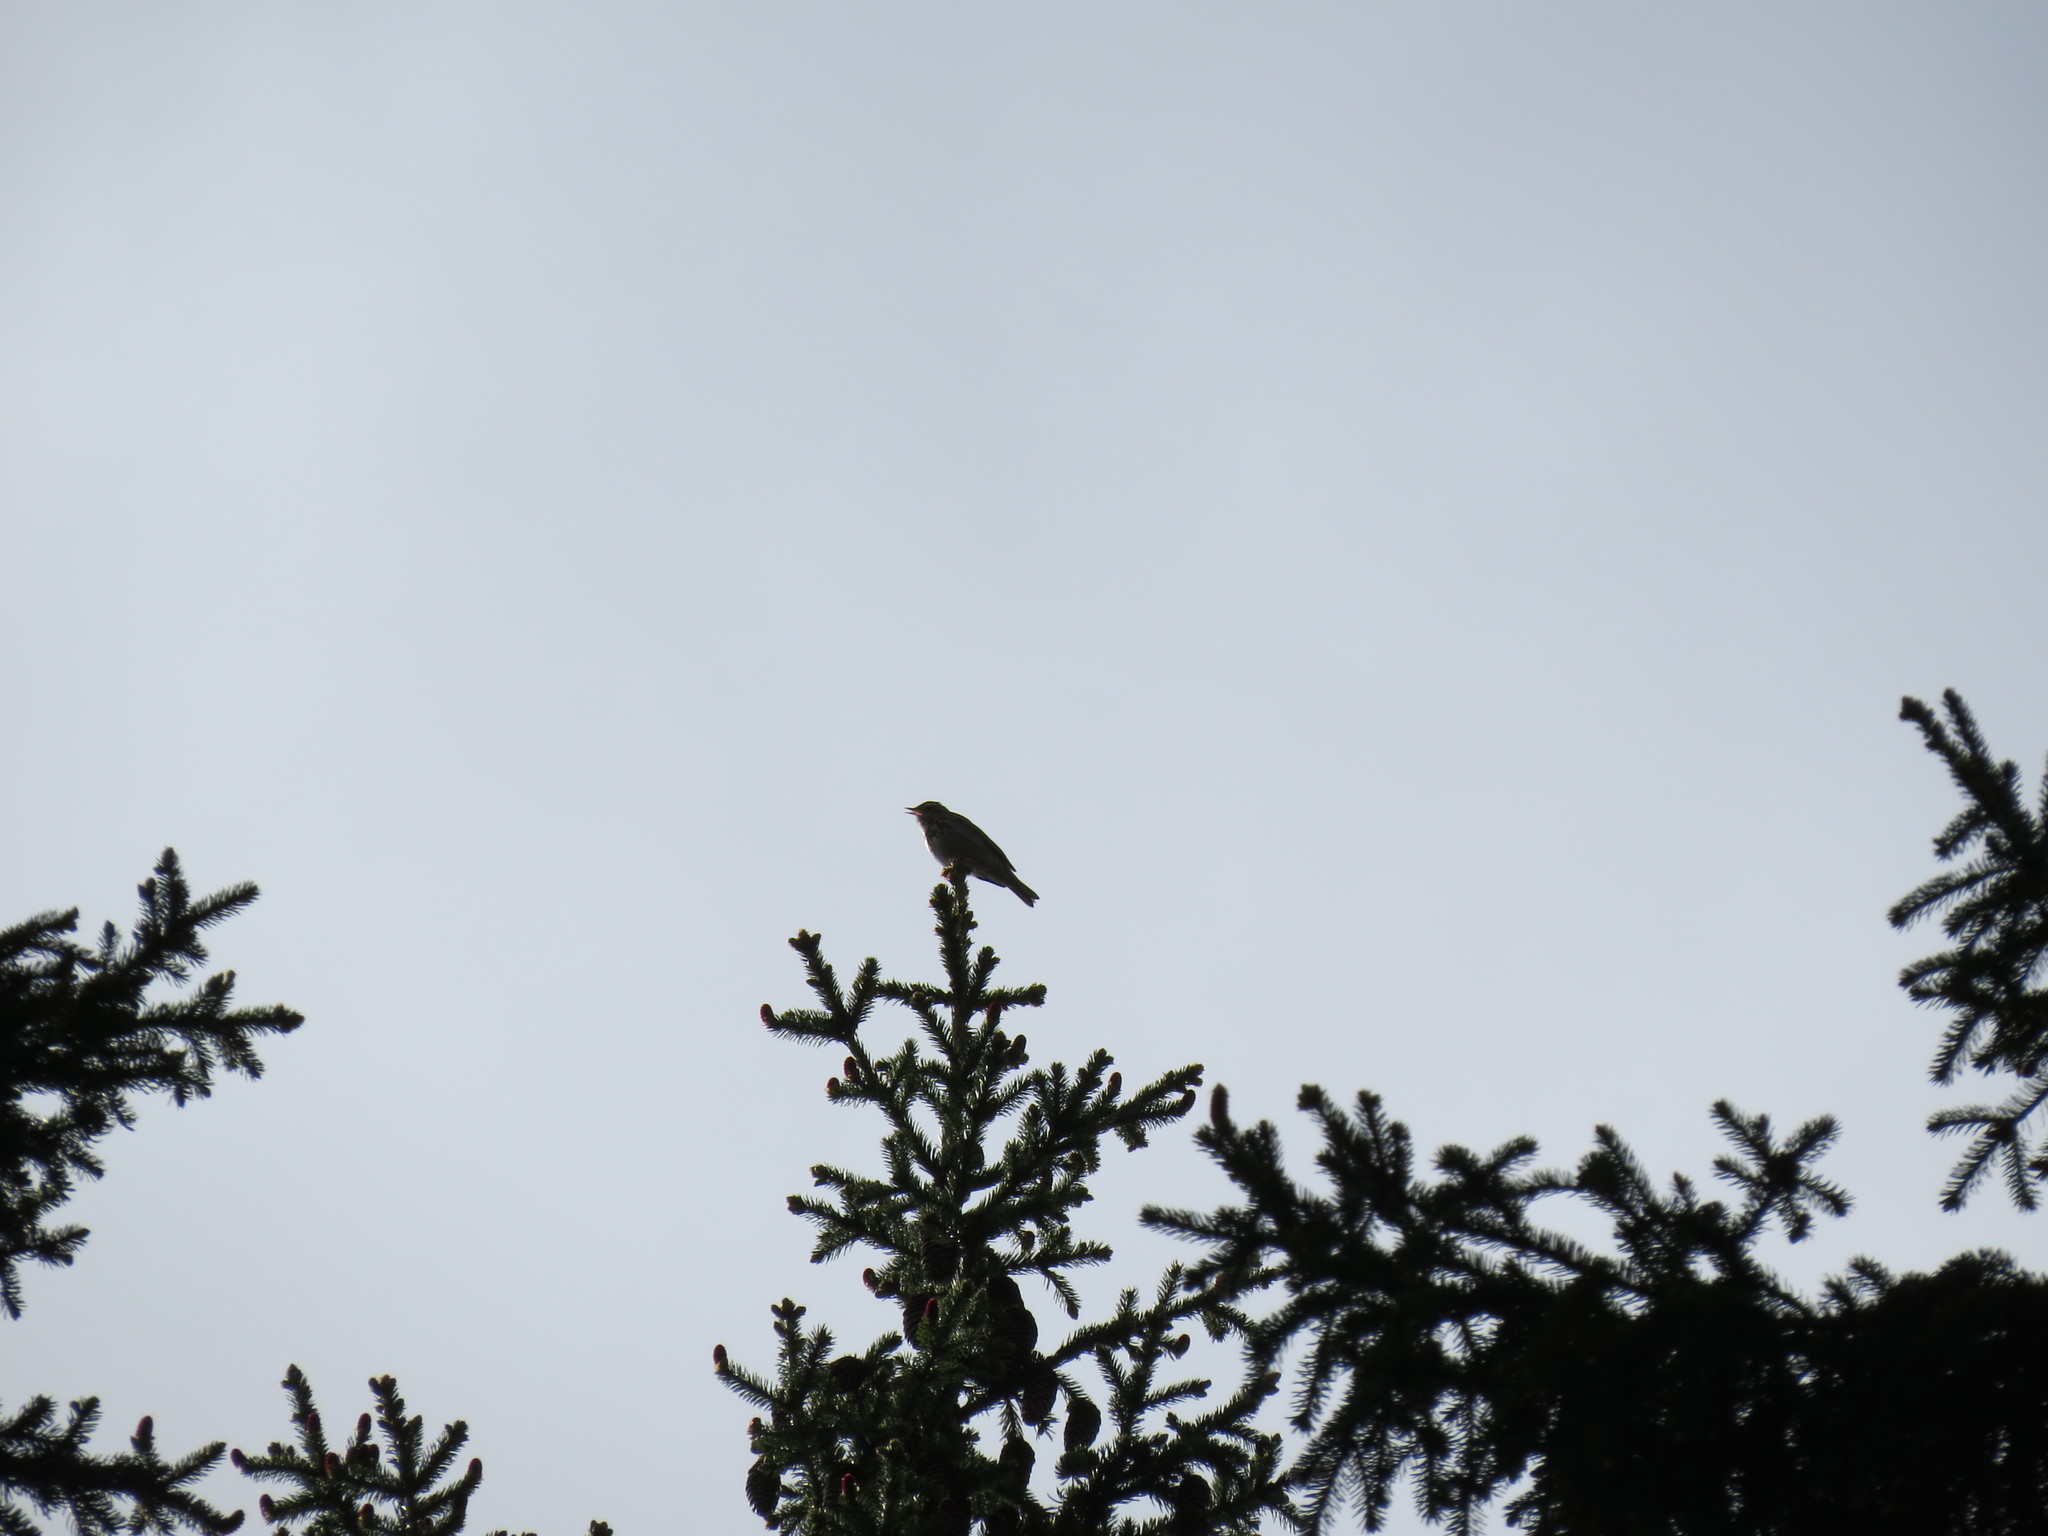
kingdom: Animalia
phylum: Chordata
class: Aves
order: Passeriformes
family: Motacillidae
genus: Anthus
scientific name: Anthus trivialis
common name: Tree pipit
